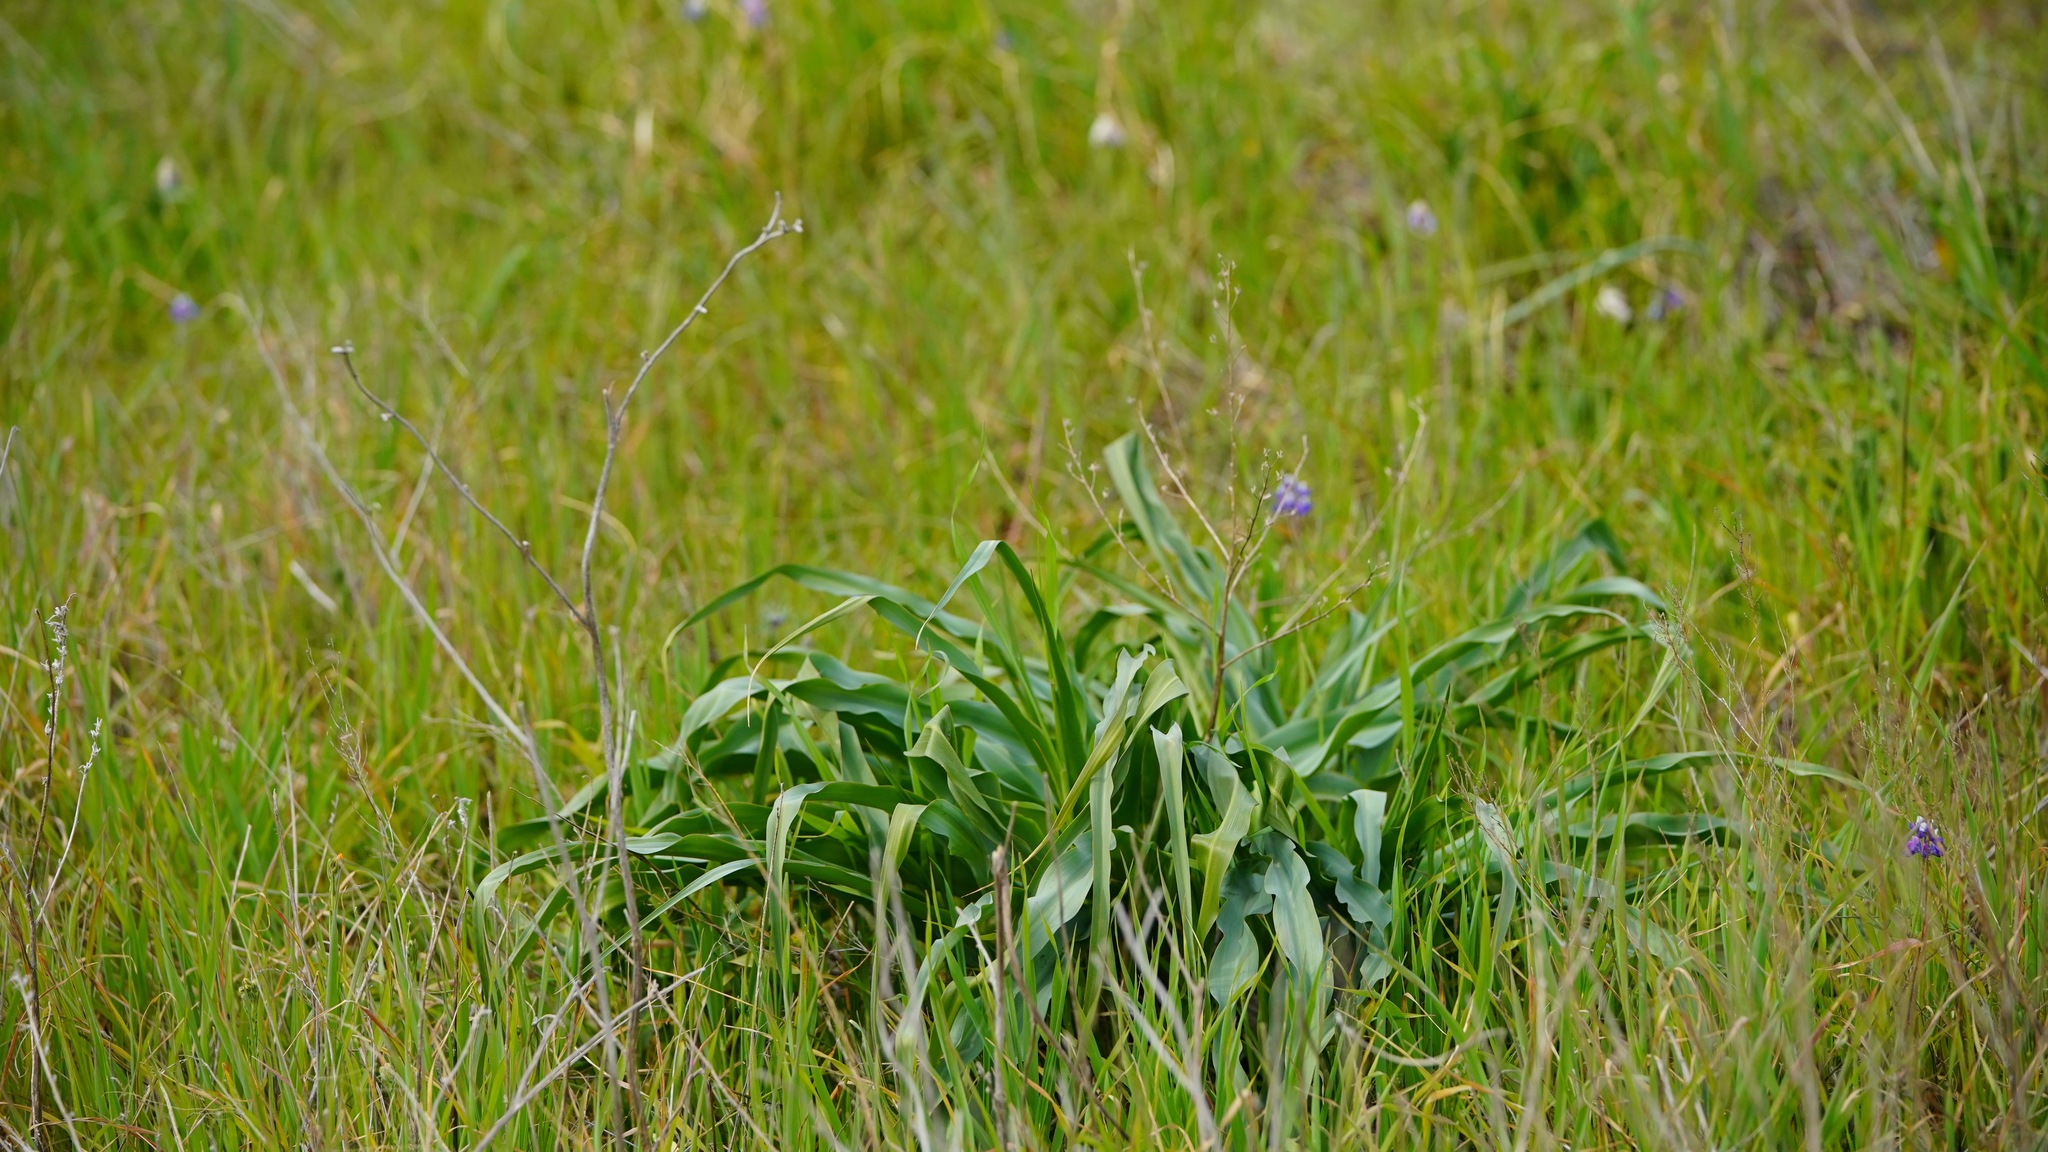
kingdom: Plantae
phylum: Tracheophyta
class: Liliopsida
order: Asparagales
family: Asparagaceae
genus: Chlorogalum
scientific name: Chlorogalum pomeridianum
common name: Amole
